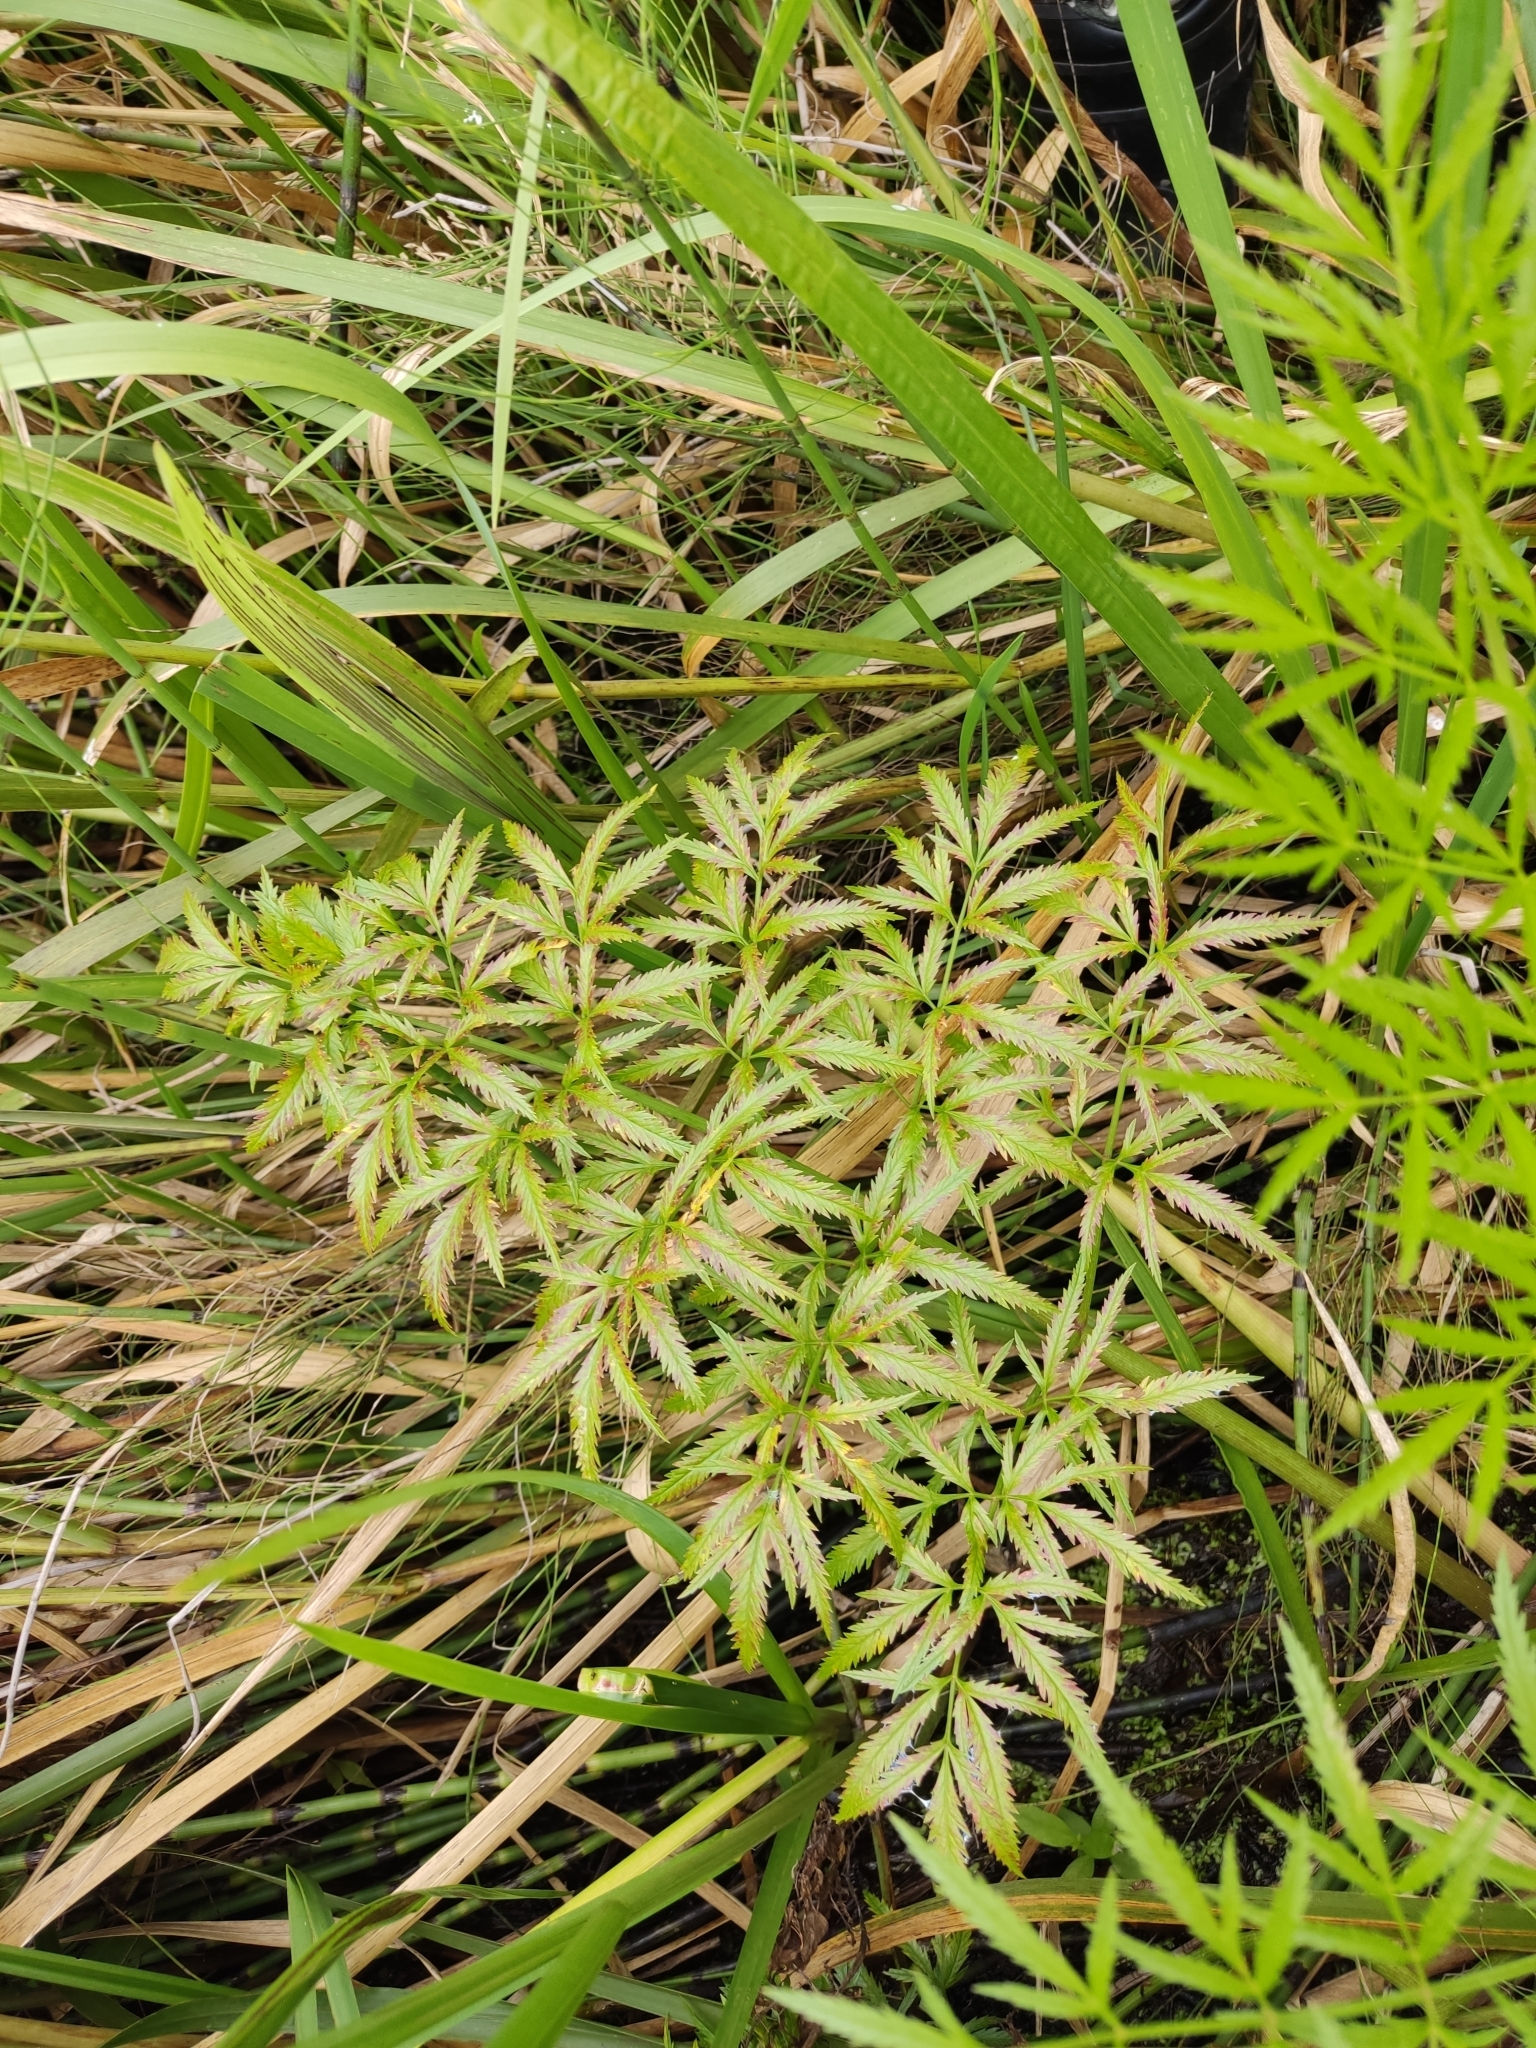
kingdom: Plantae
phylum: Tracheophyta
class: Magnoliopsida
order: Apiales
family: Apiaceae
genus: Cicuta
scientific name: Cicuta virosa
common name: Cowbane
